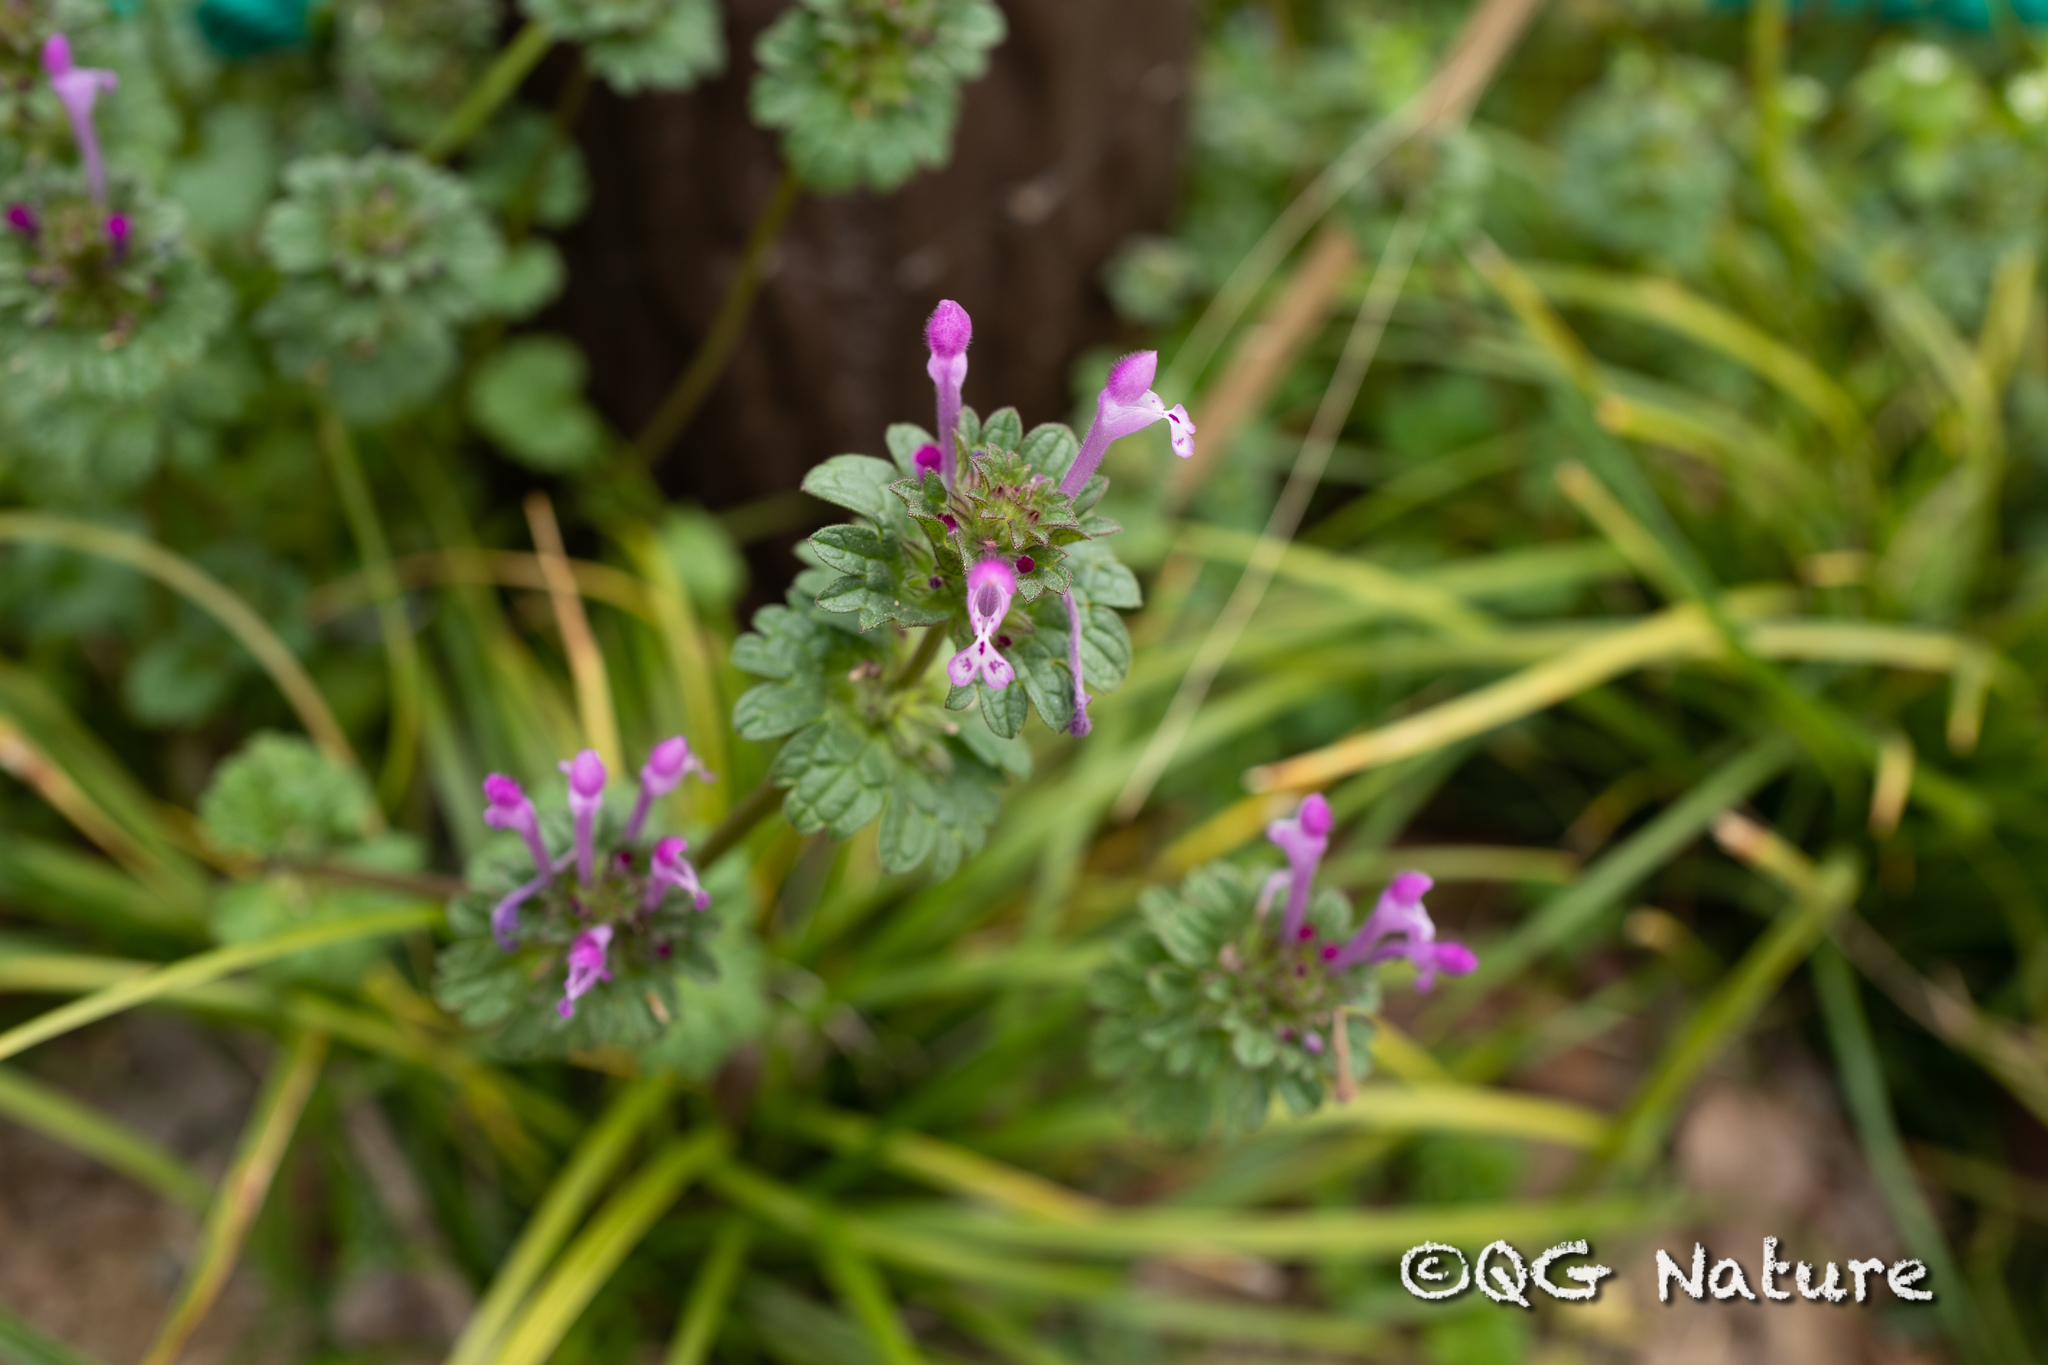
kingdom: Plantae
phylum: Tracheophyta
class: Magnoliopsida
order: Lamiales
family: Lamiaceae
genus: Lamium
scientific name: Lamium amplexicaule
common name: Henbit dead-nettle
